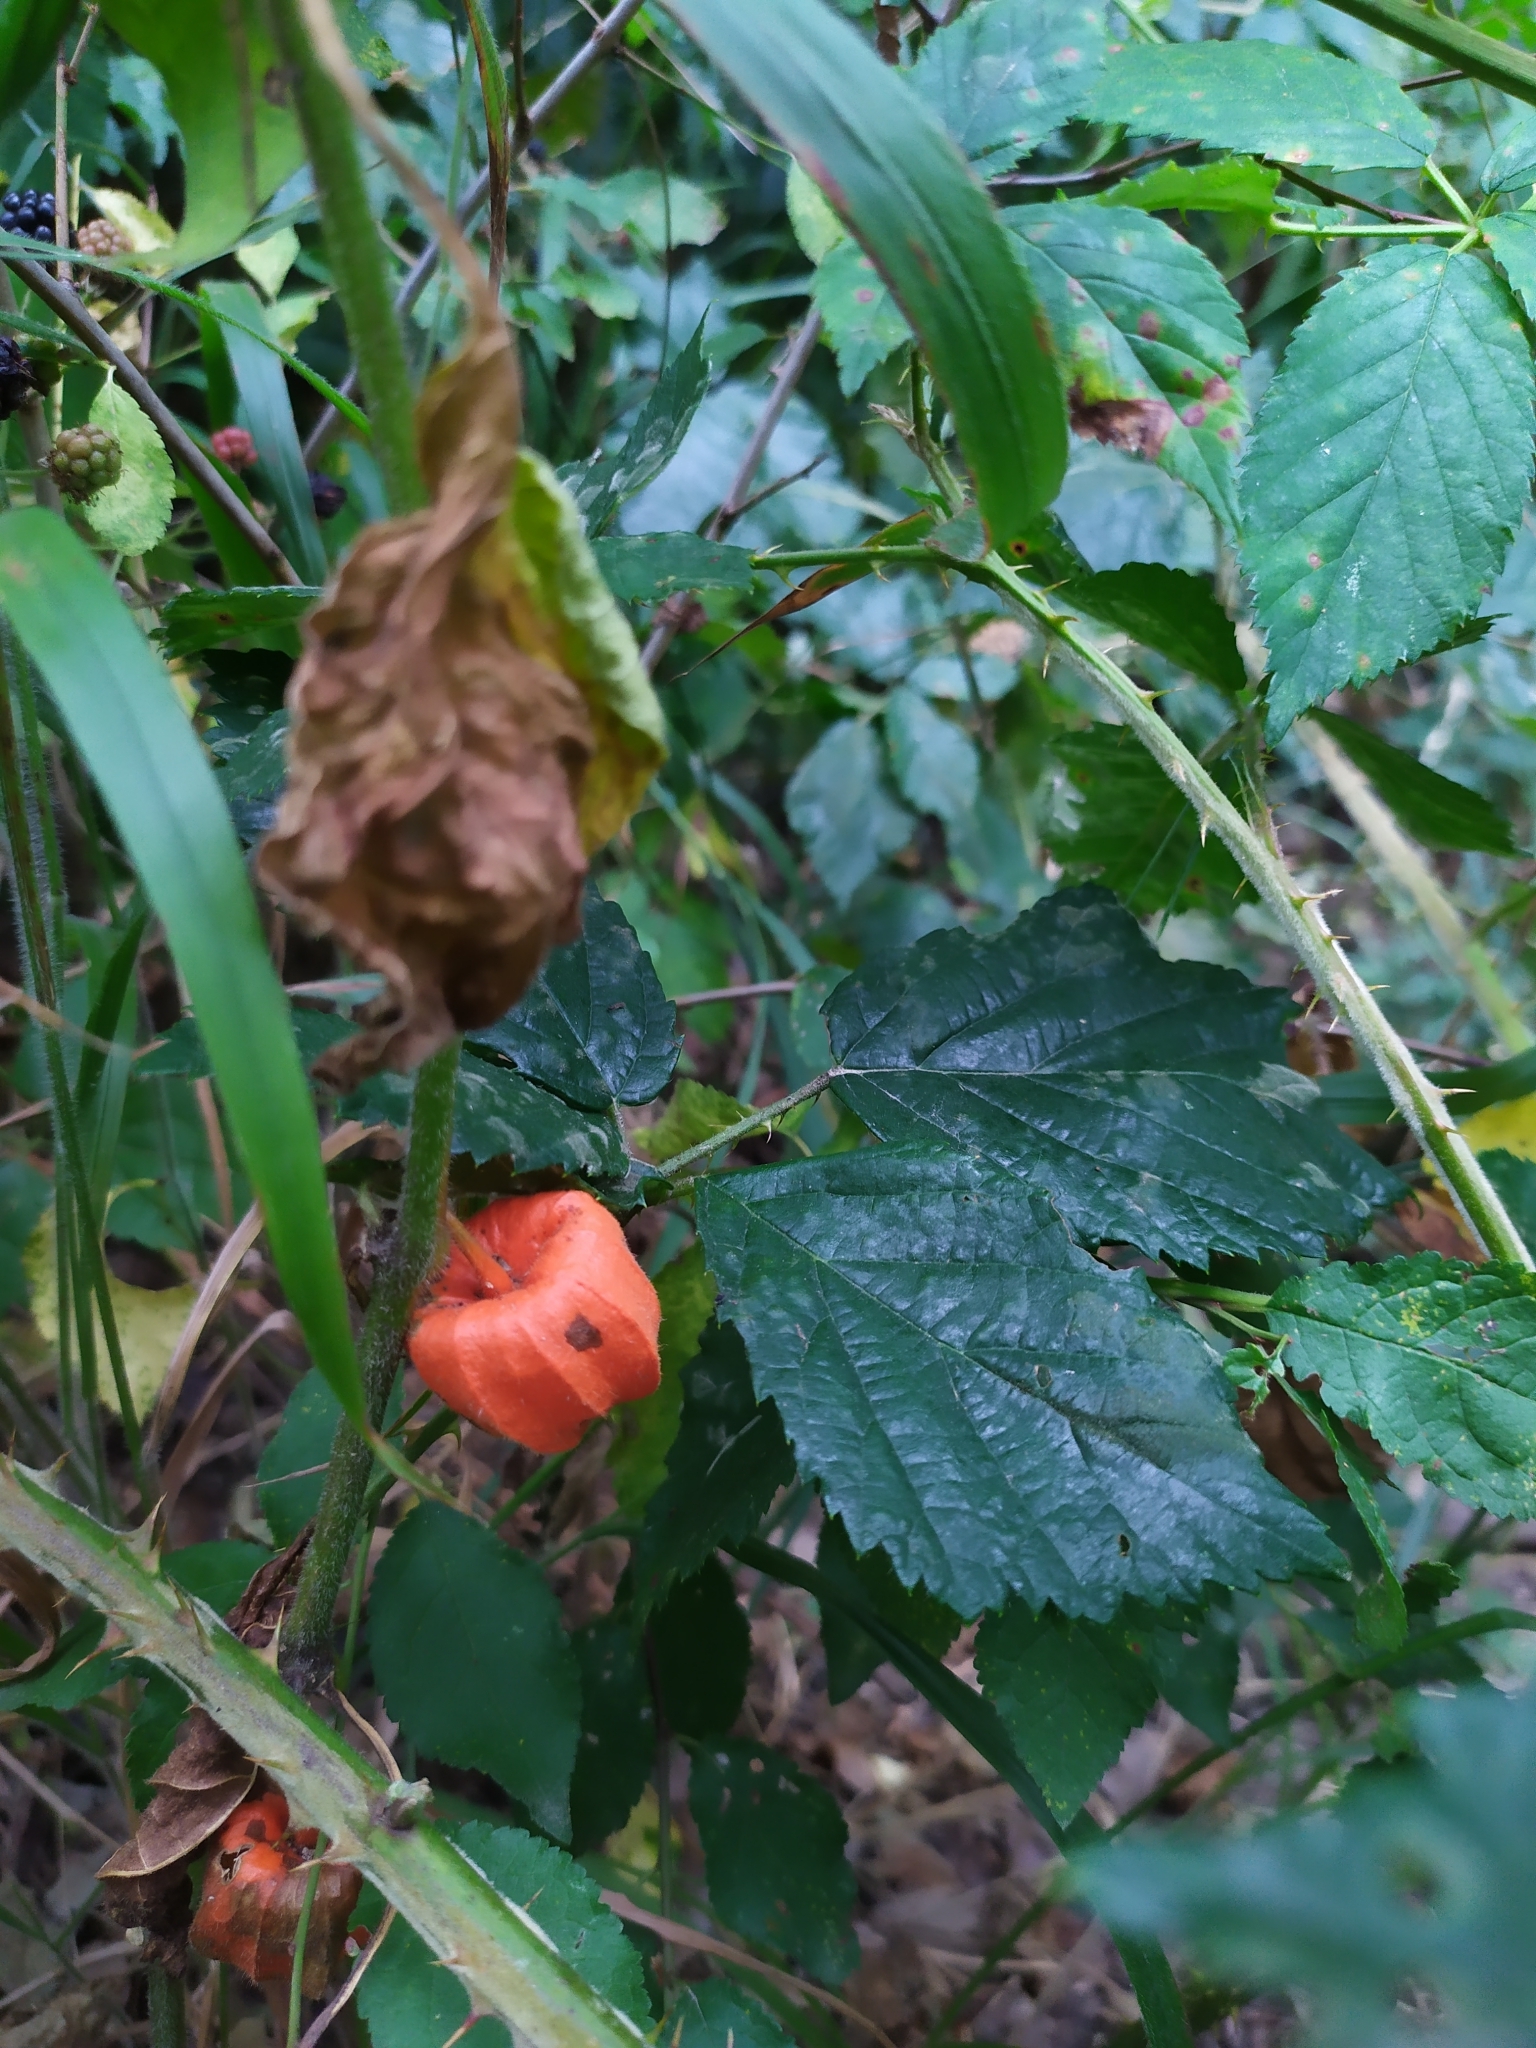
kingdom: Plantae
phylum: Tracheophyta
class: Magnoliopsida
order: Solanales
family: Solanaceae
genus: Alkekengi
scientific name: Alkekengi officinarum
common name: Japanese-lantern
